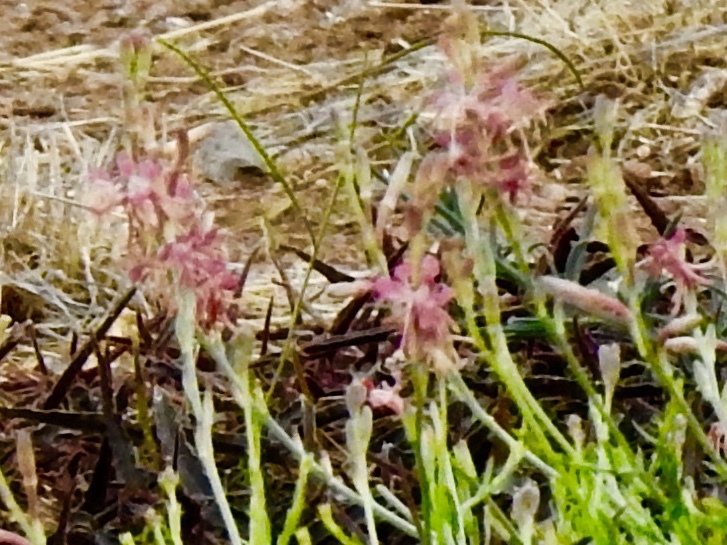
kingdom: Plantae
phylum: Tracheophyta
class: Magnoliopsida
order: Myrtales
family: Onagraceae
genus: Oenothera
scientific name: Oenothera suffrutescens
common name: Scarlet beeblossom
